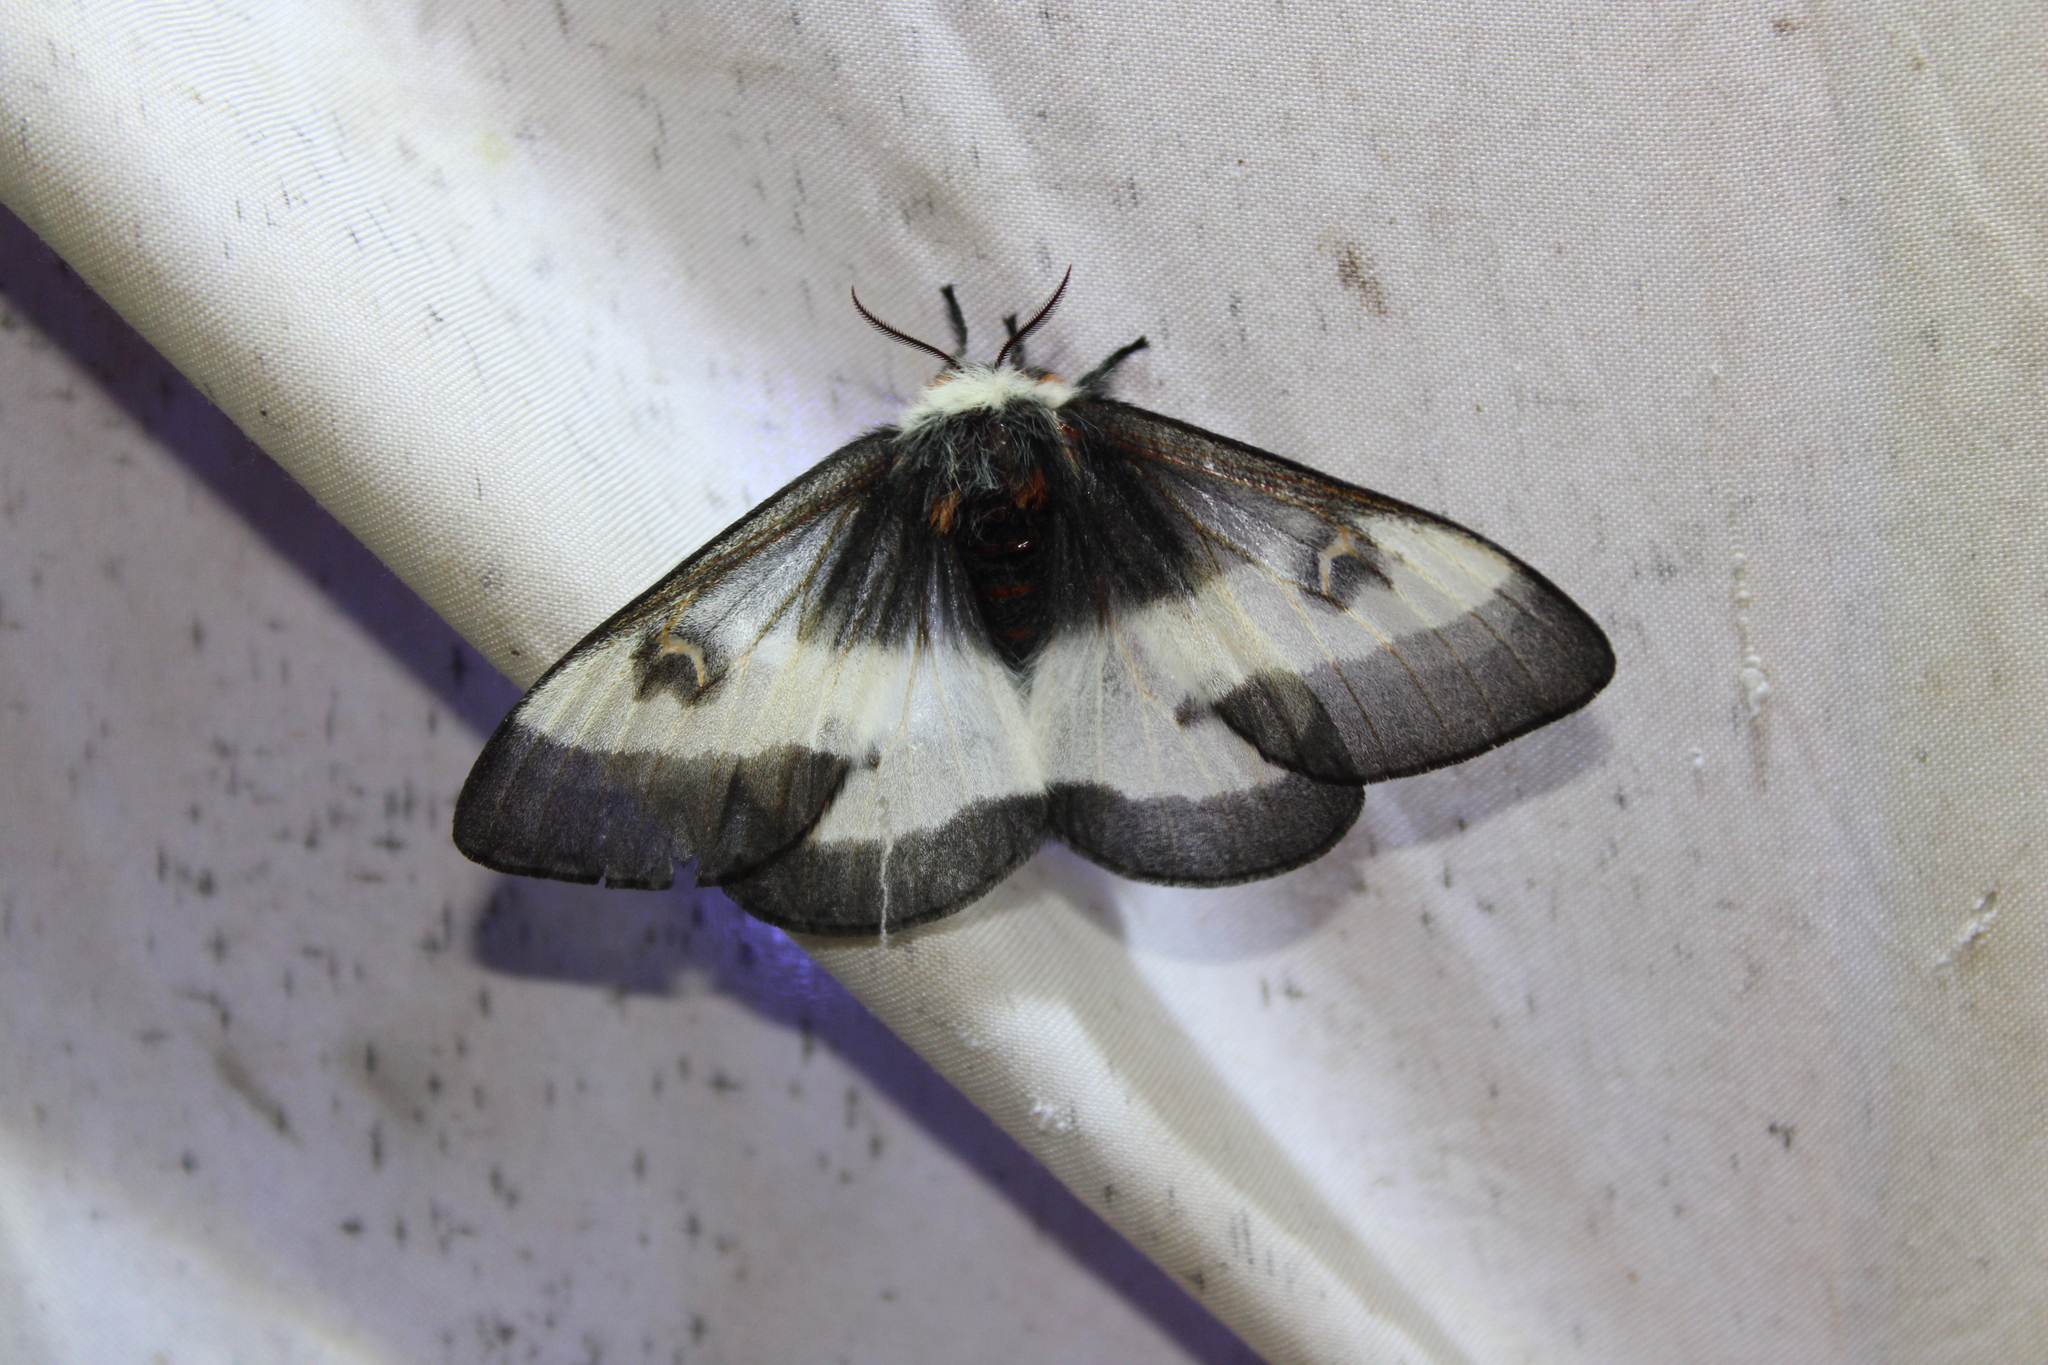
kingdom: Animalia
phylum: Arthropoda
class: Insecta
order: Lepidoptera
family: Saturniidae
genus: Hemileuca
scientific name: Hemileuca maia
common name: Eastern buckmoth
